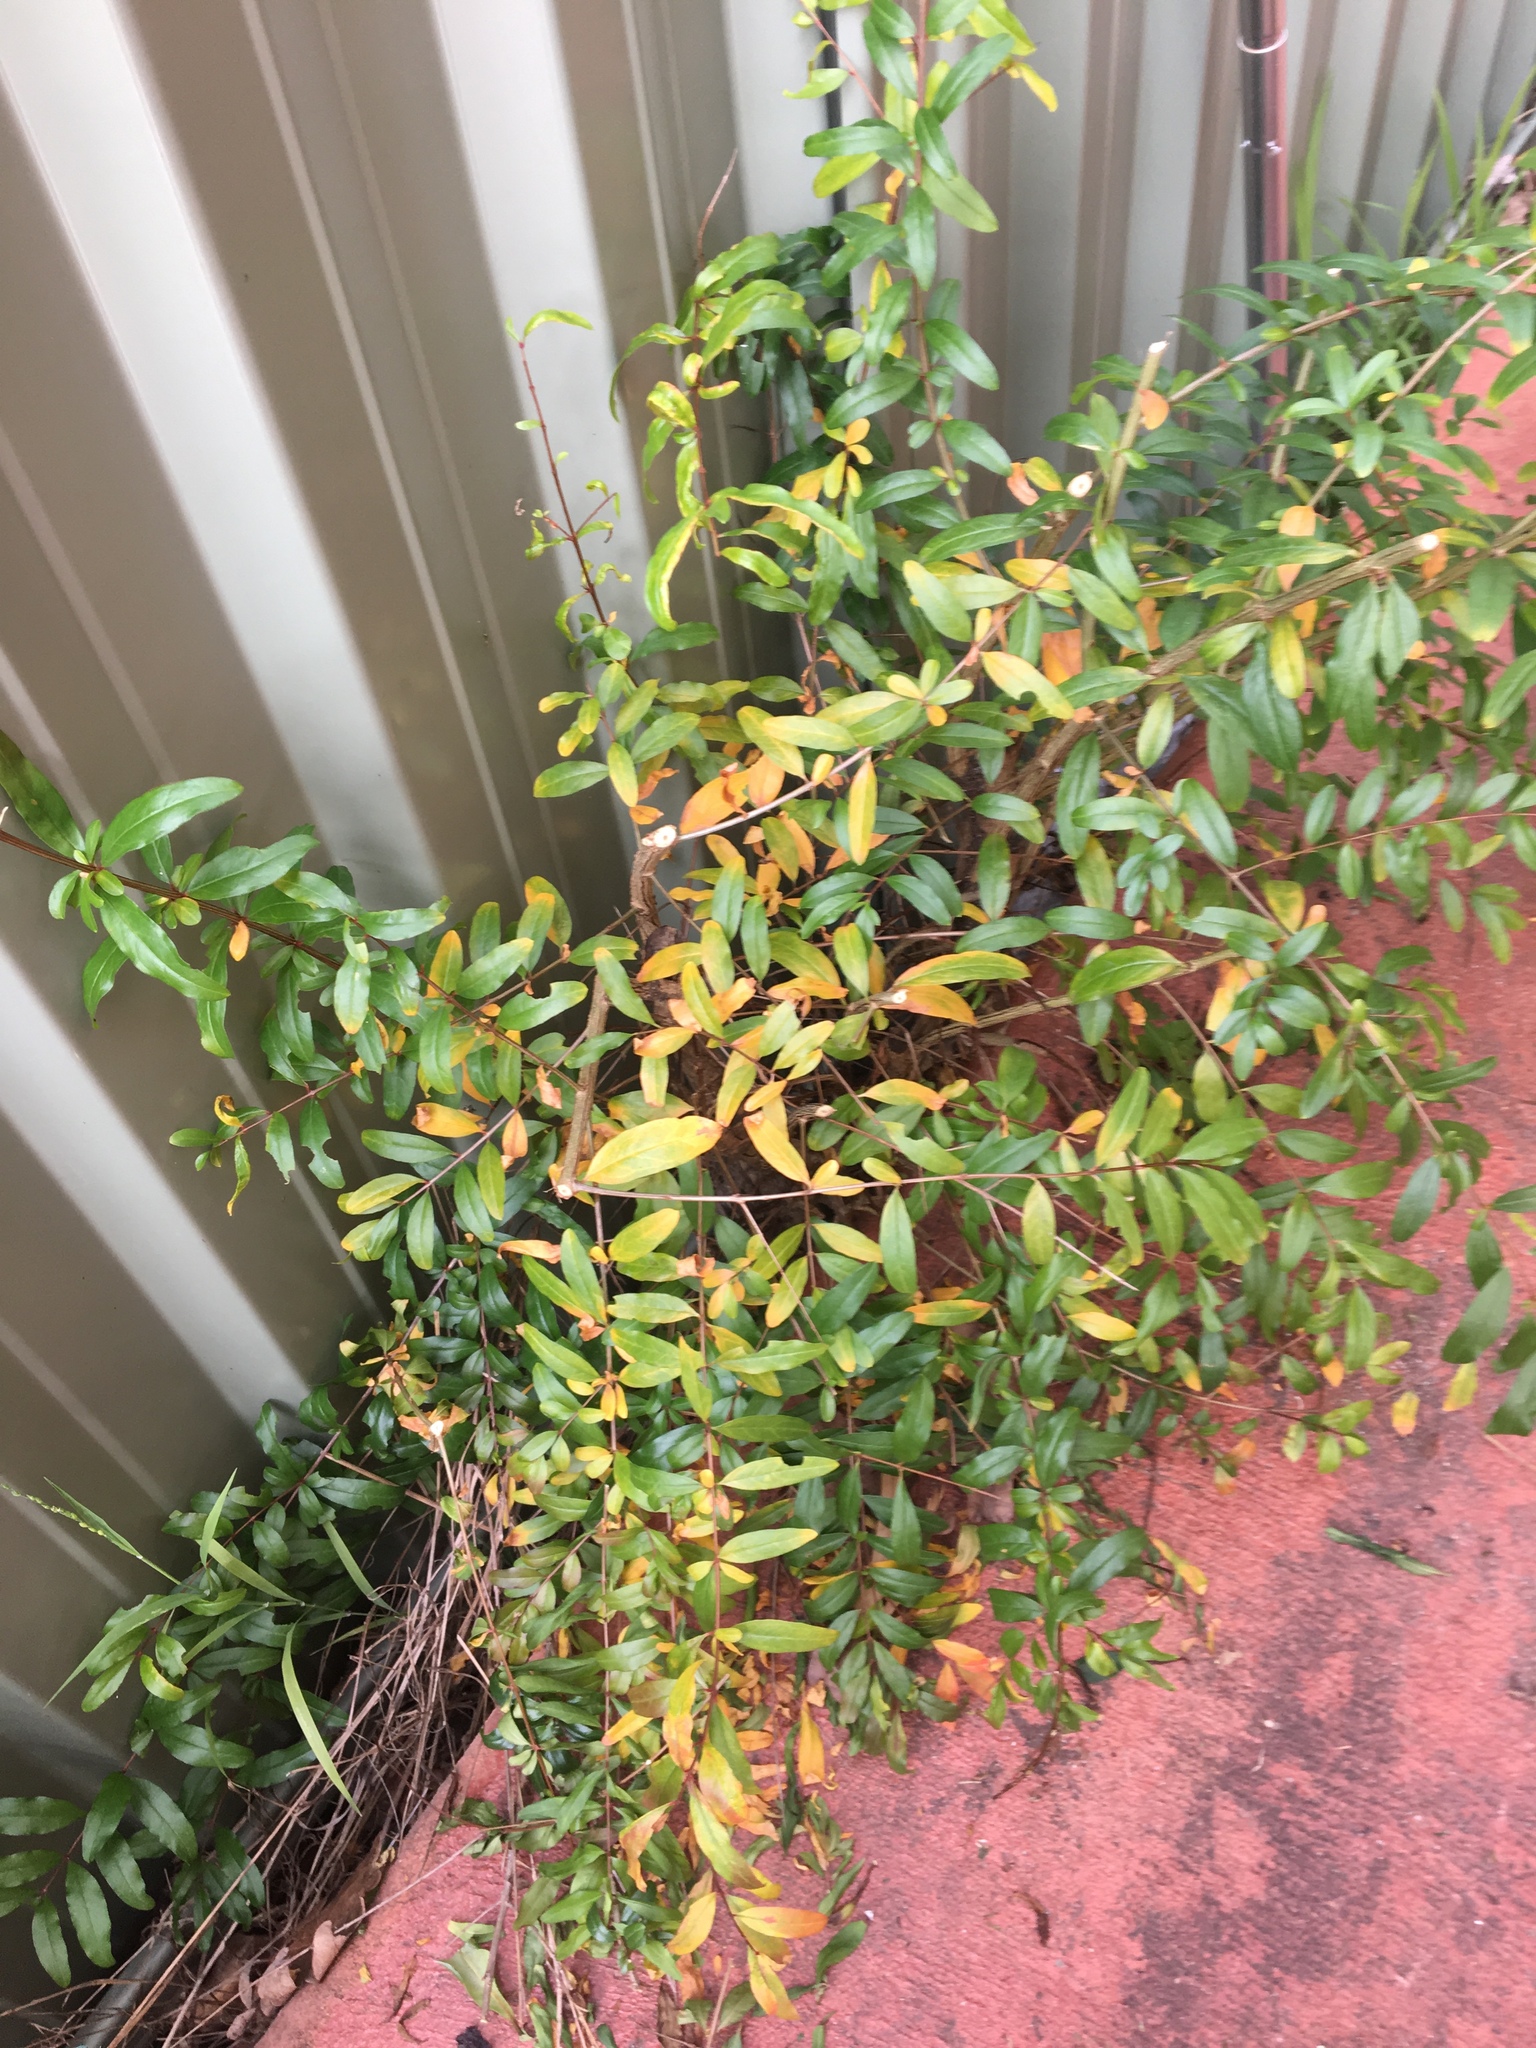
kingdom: Plantae
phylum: Tracheophyta
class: Magnoliopsida
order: Myrtales
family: Lythraceae
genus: Punica
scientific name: Punica granatum
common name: Pomegranate
